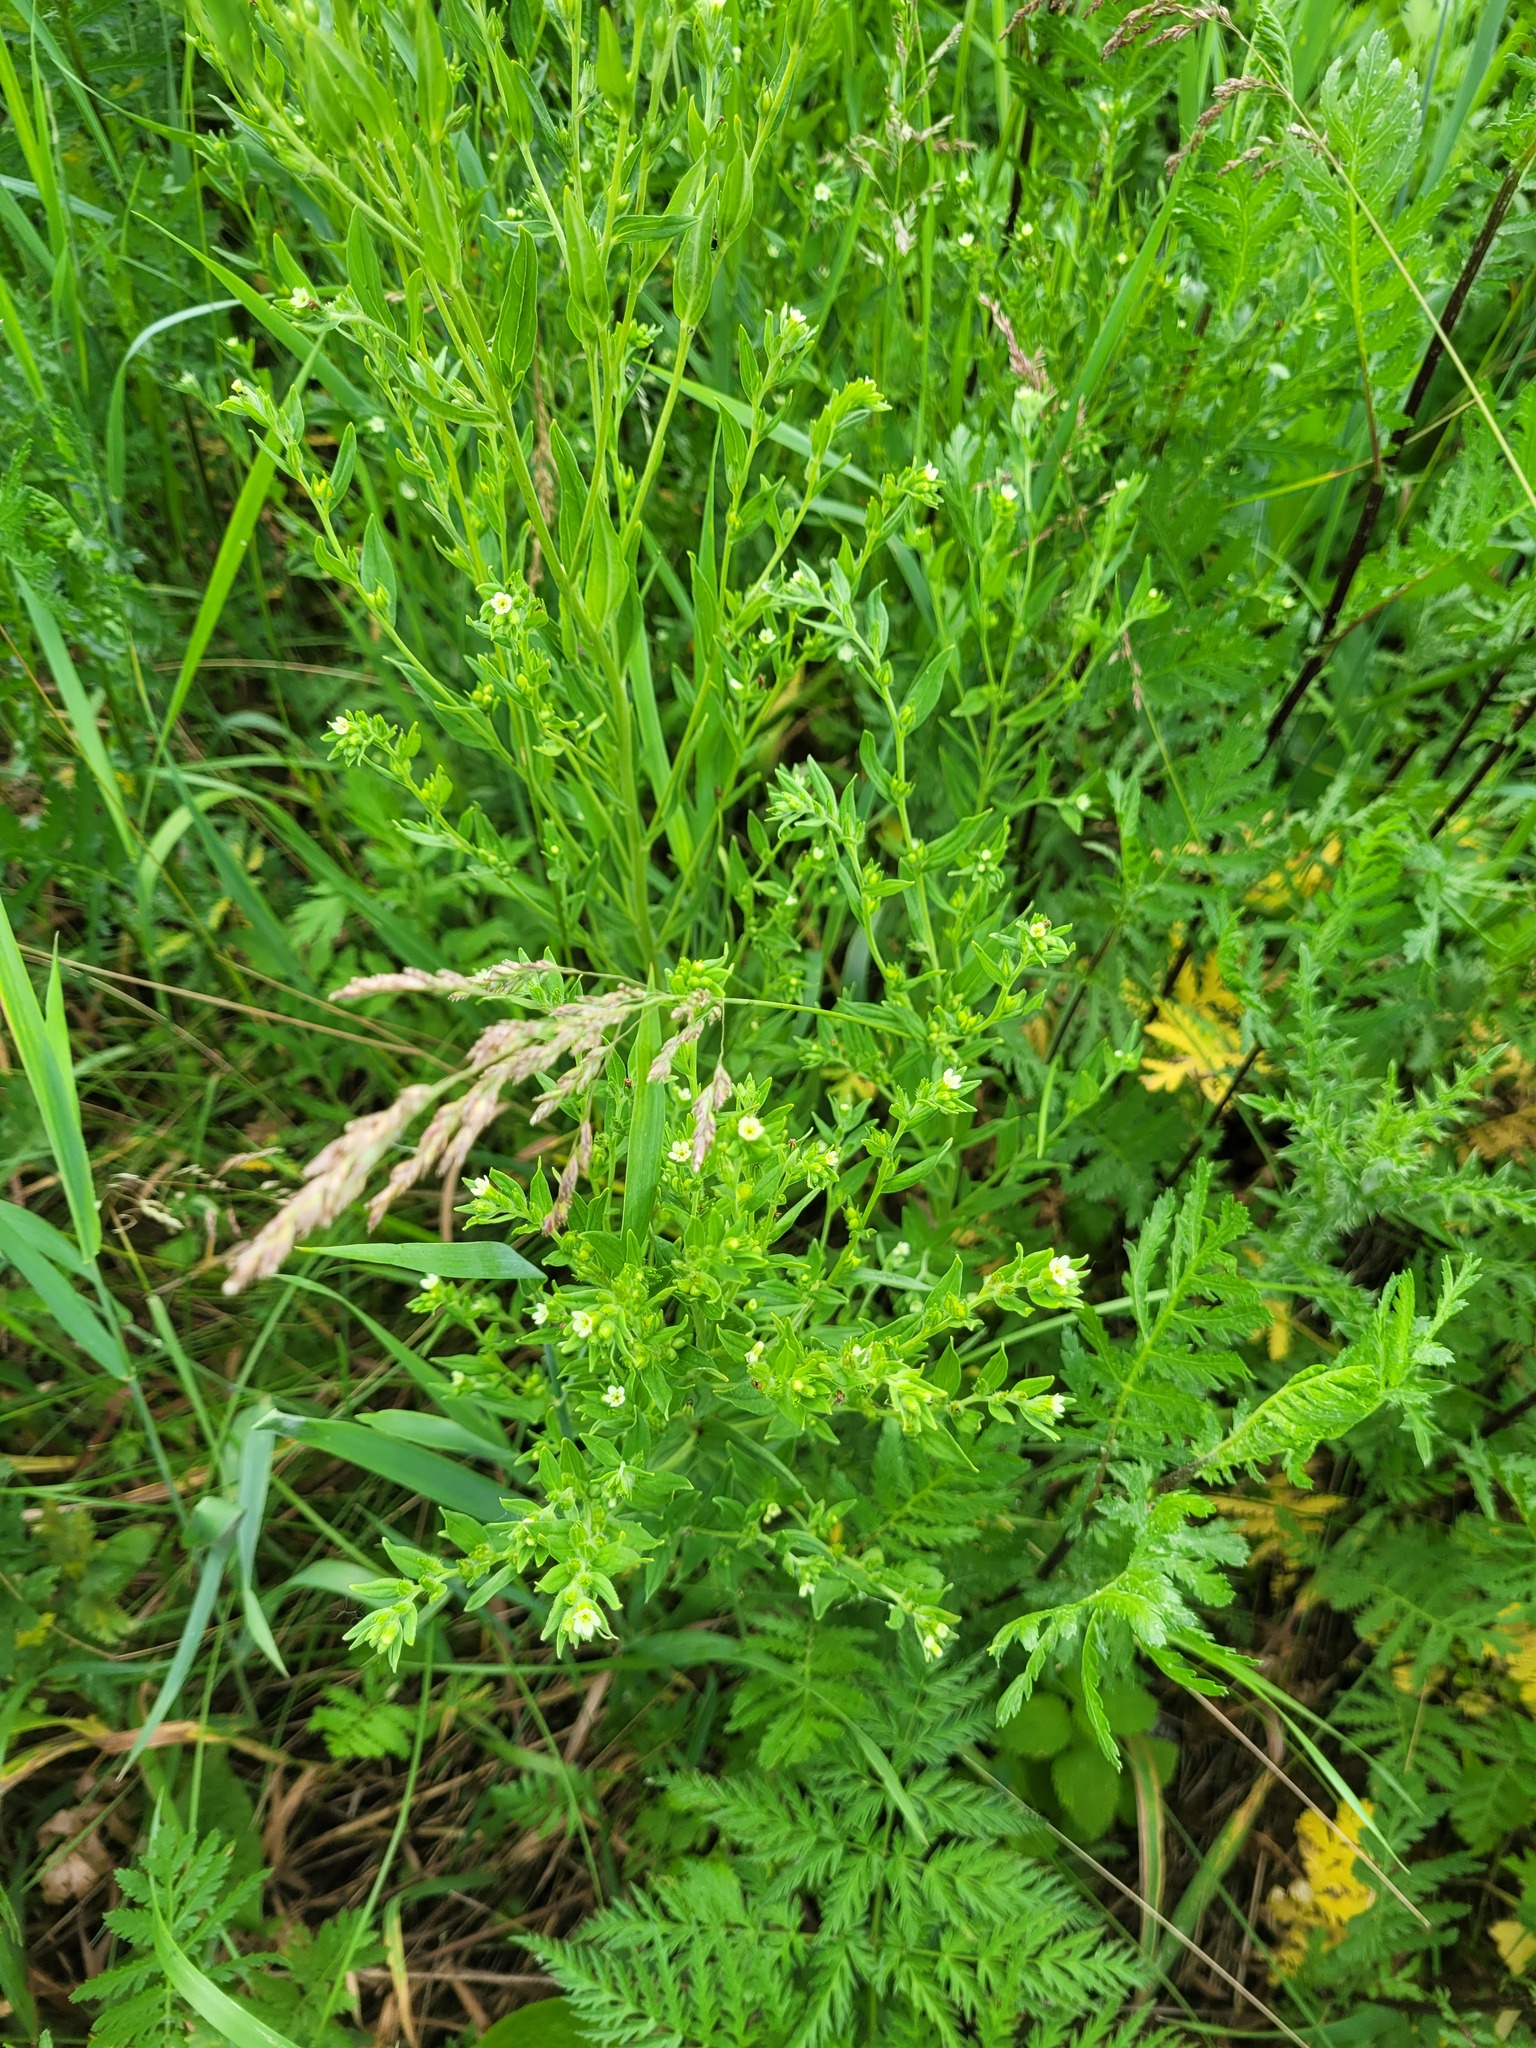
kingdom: Plantae
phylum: Tracheophyta
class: Magnoliopsida
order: Boraginales
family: Boraginaceae
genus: Lithospermum
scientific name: Lithospermum officinale
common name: Common gromwell
